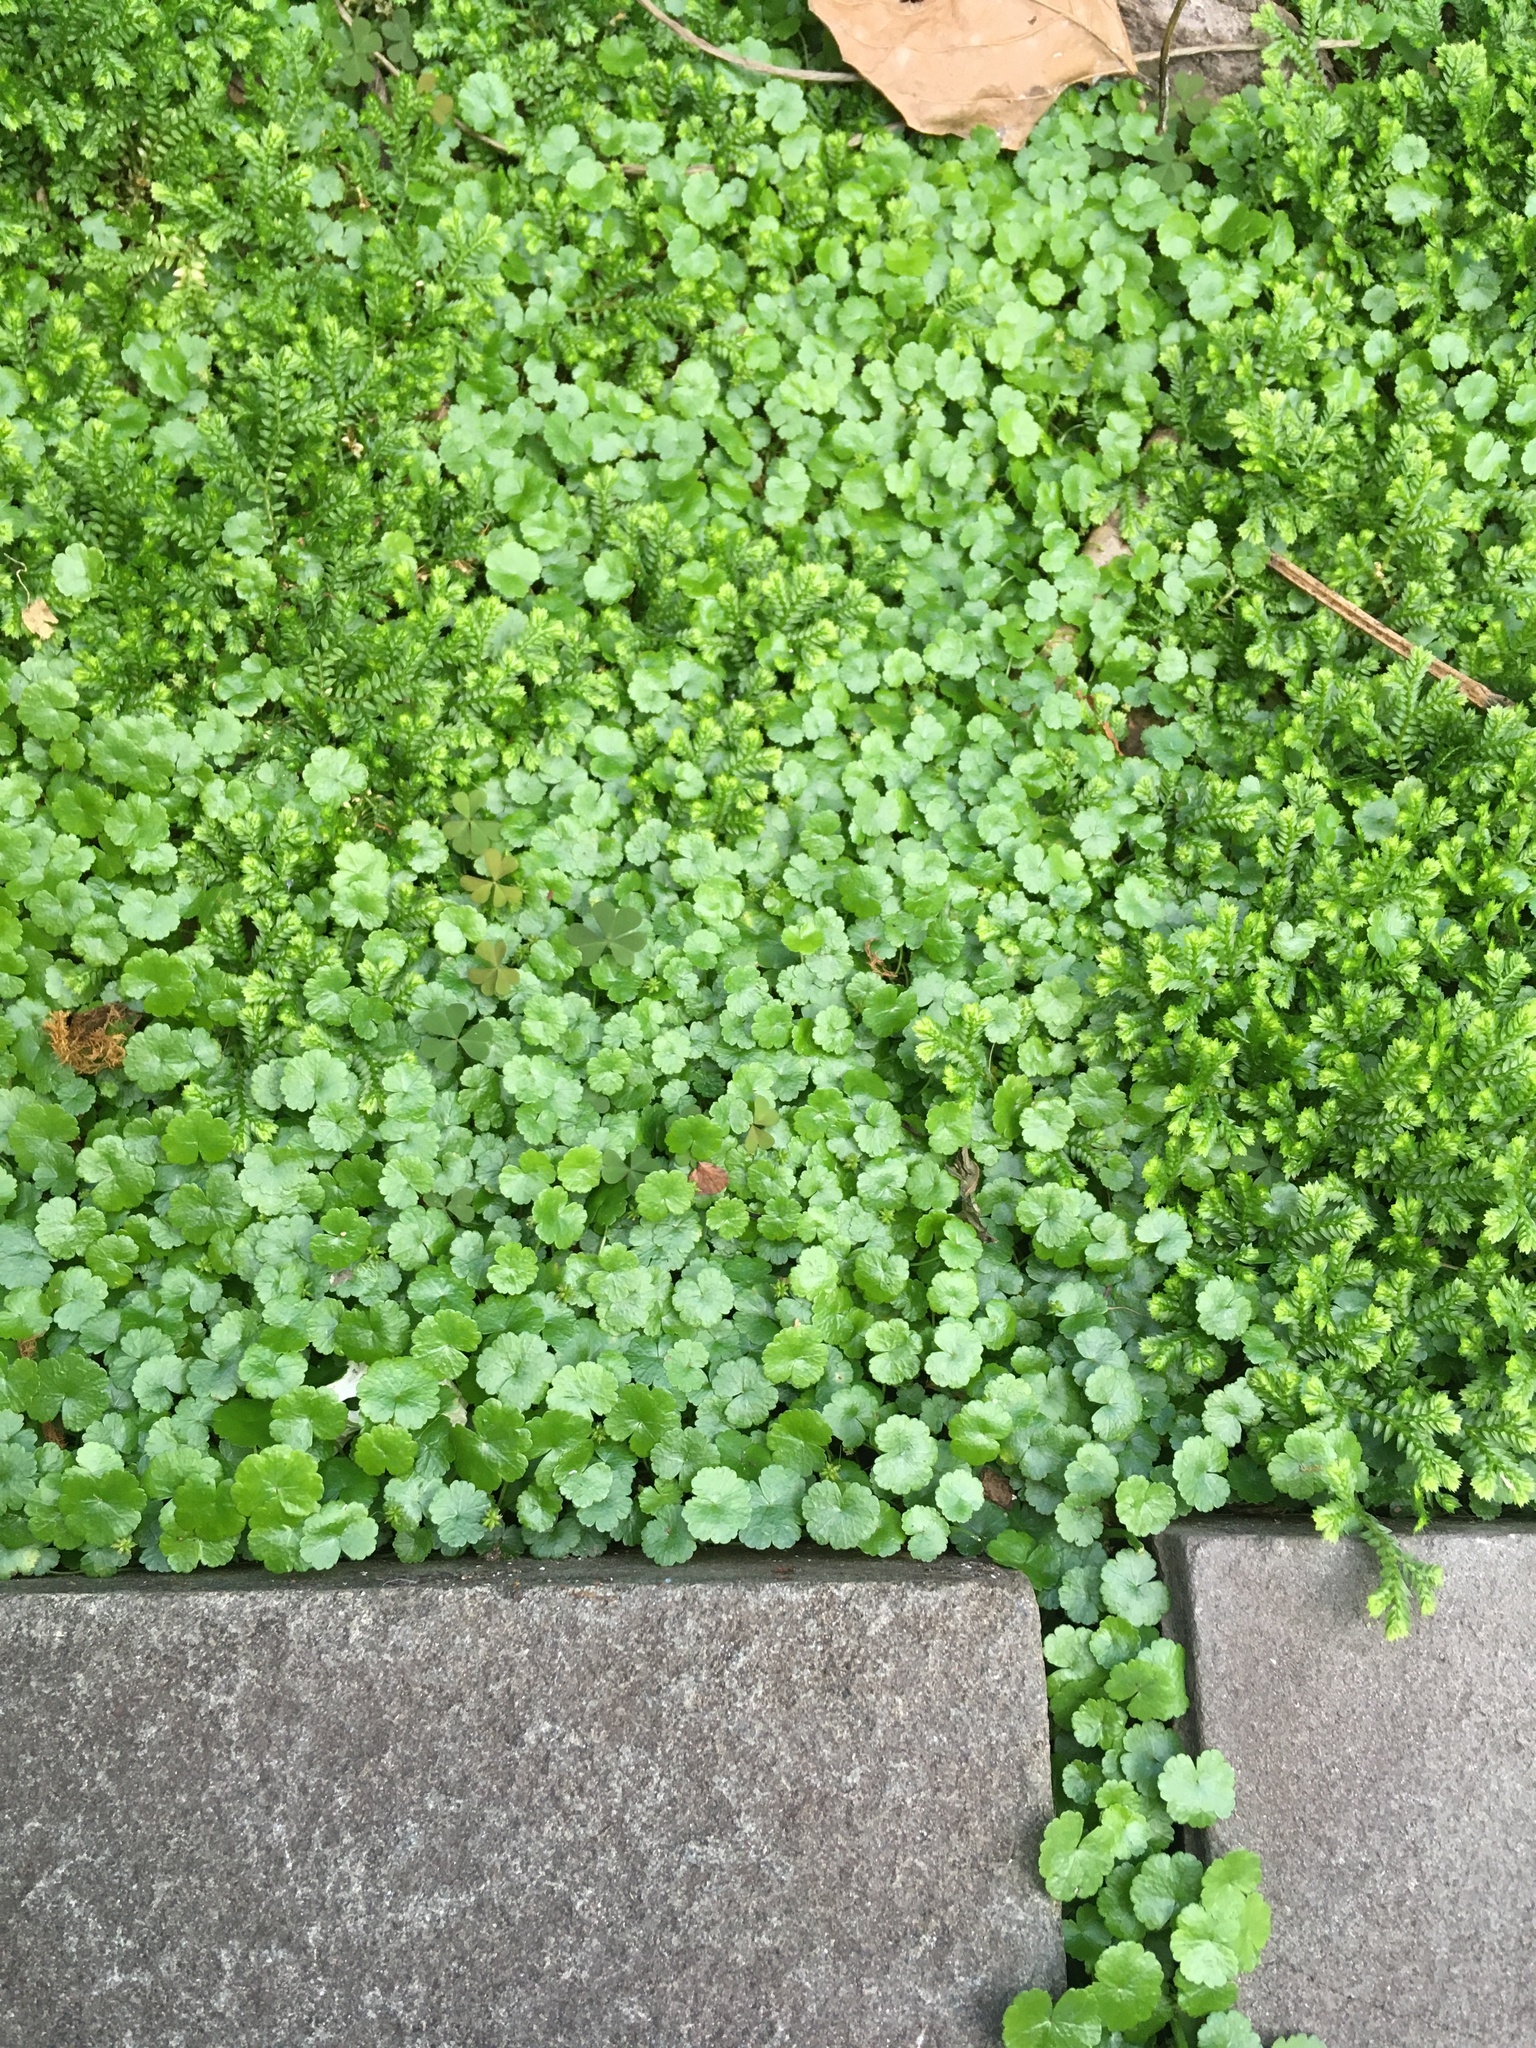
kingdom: Plantae
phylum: Tracheophyta
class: Magnoliopsida
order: Apiales
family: Araliaceae
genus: Hydrocotyle
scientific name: Hydrocotyle sibthorpioides
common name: Lawn marshpennywort
